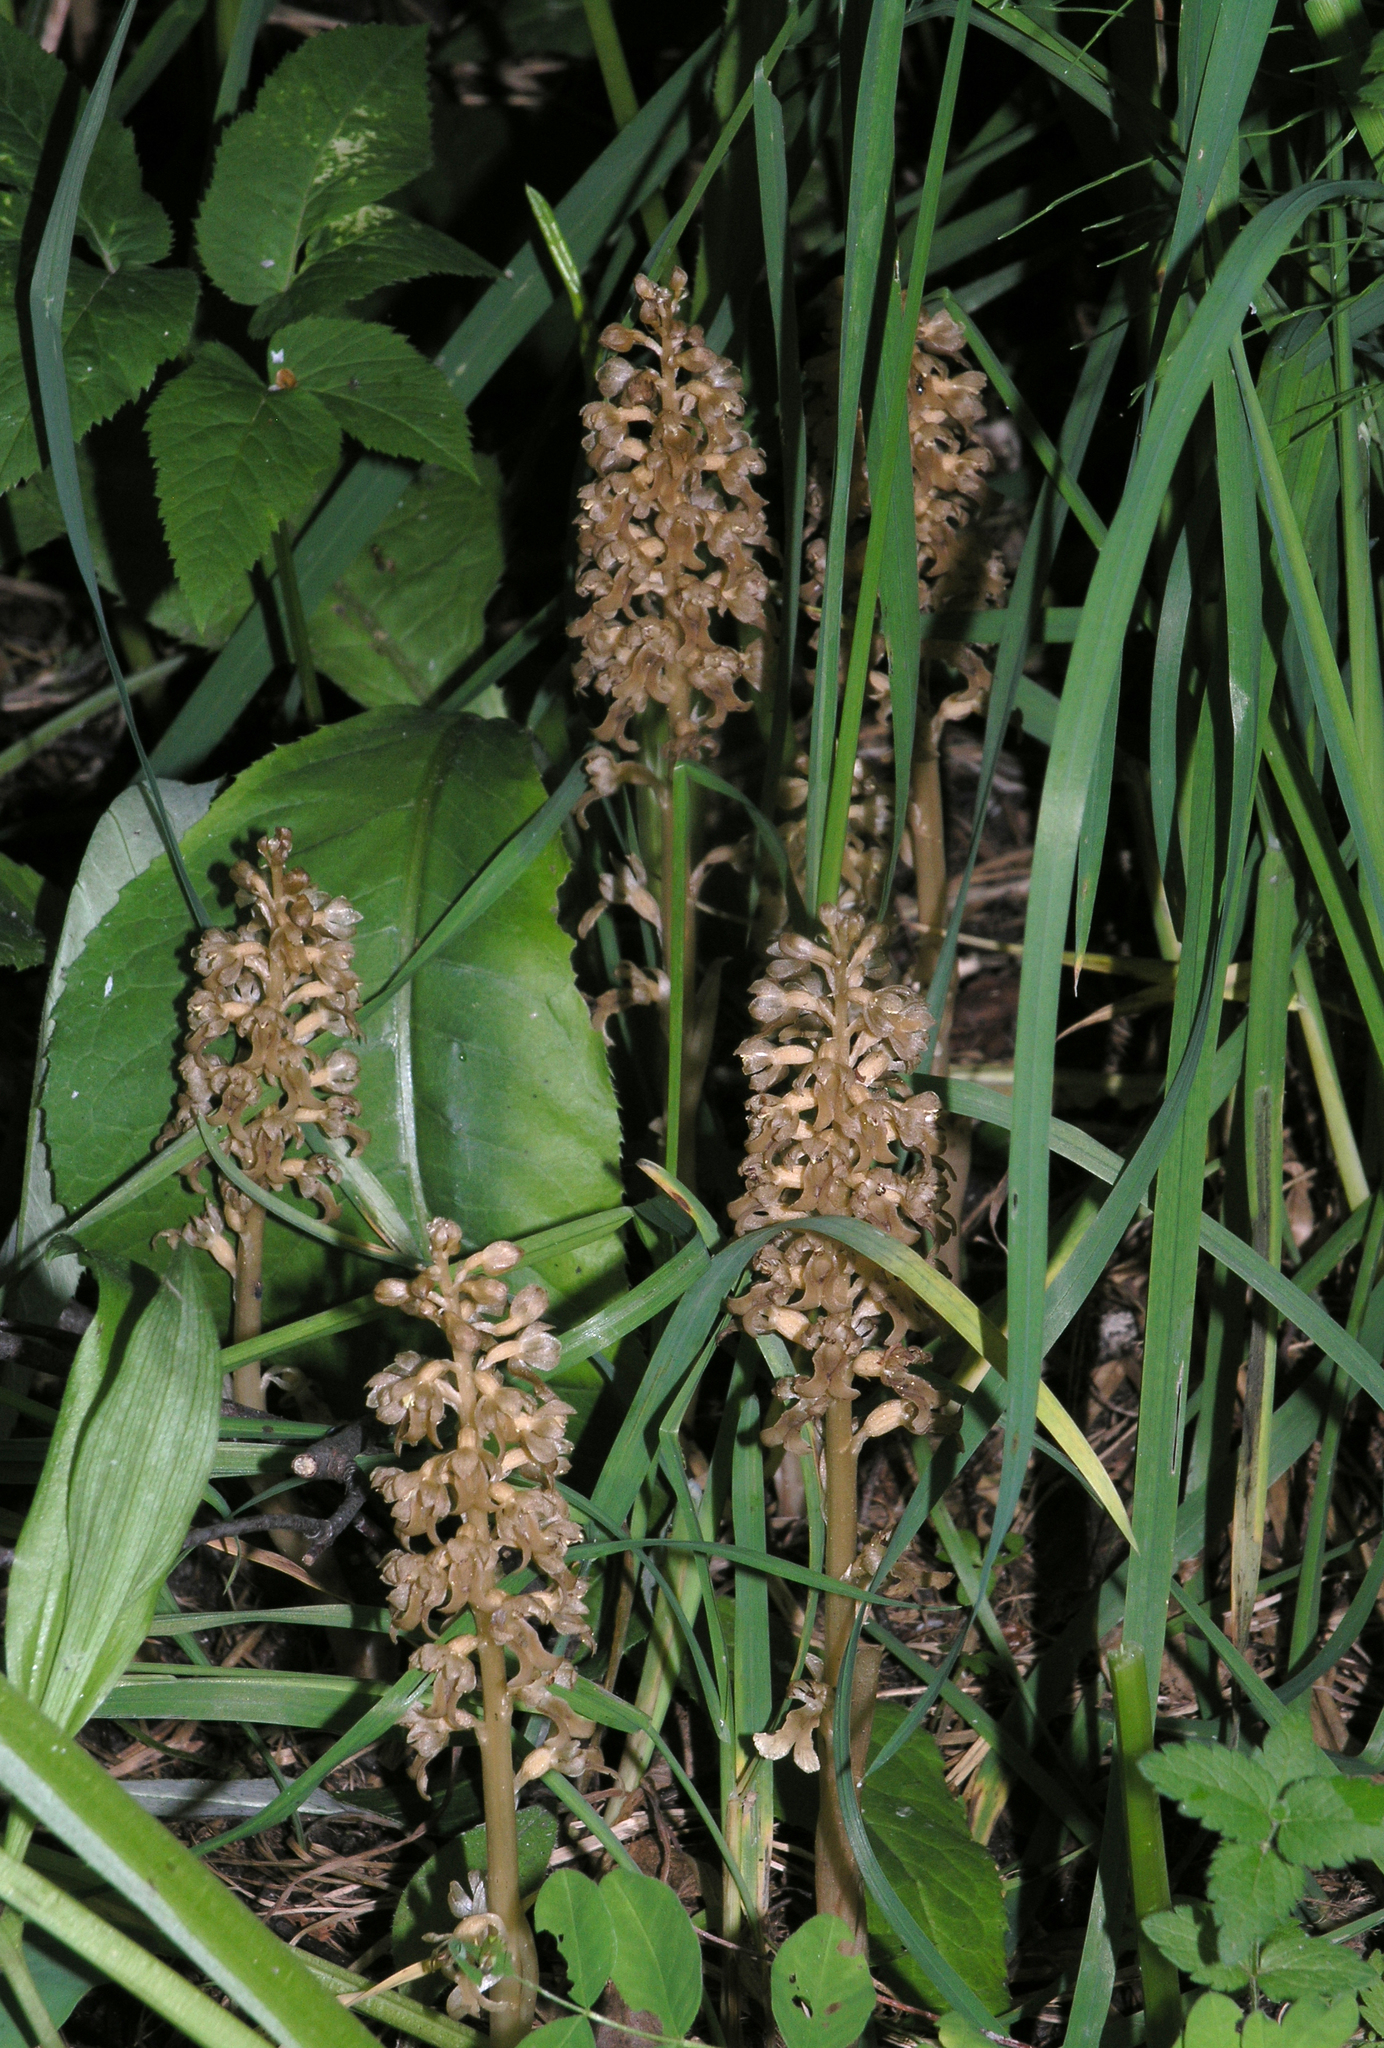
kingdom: Plantae
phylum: Tracheophyta
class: Liliopsida
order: Asparagales
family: Orchidaceae
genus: Neottia
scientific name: Neottia nidus-avis
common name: Bird's-nest orchid
